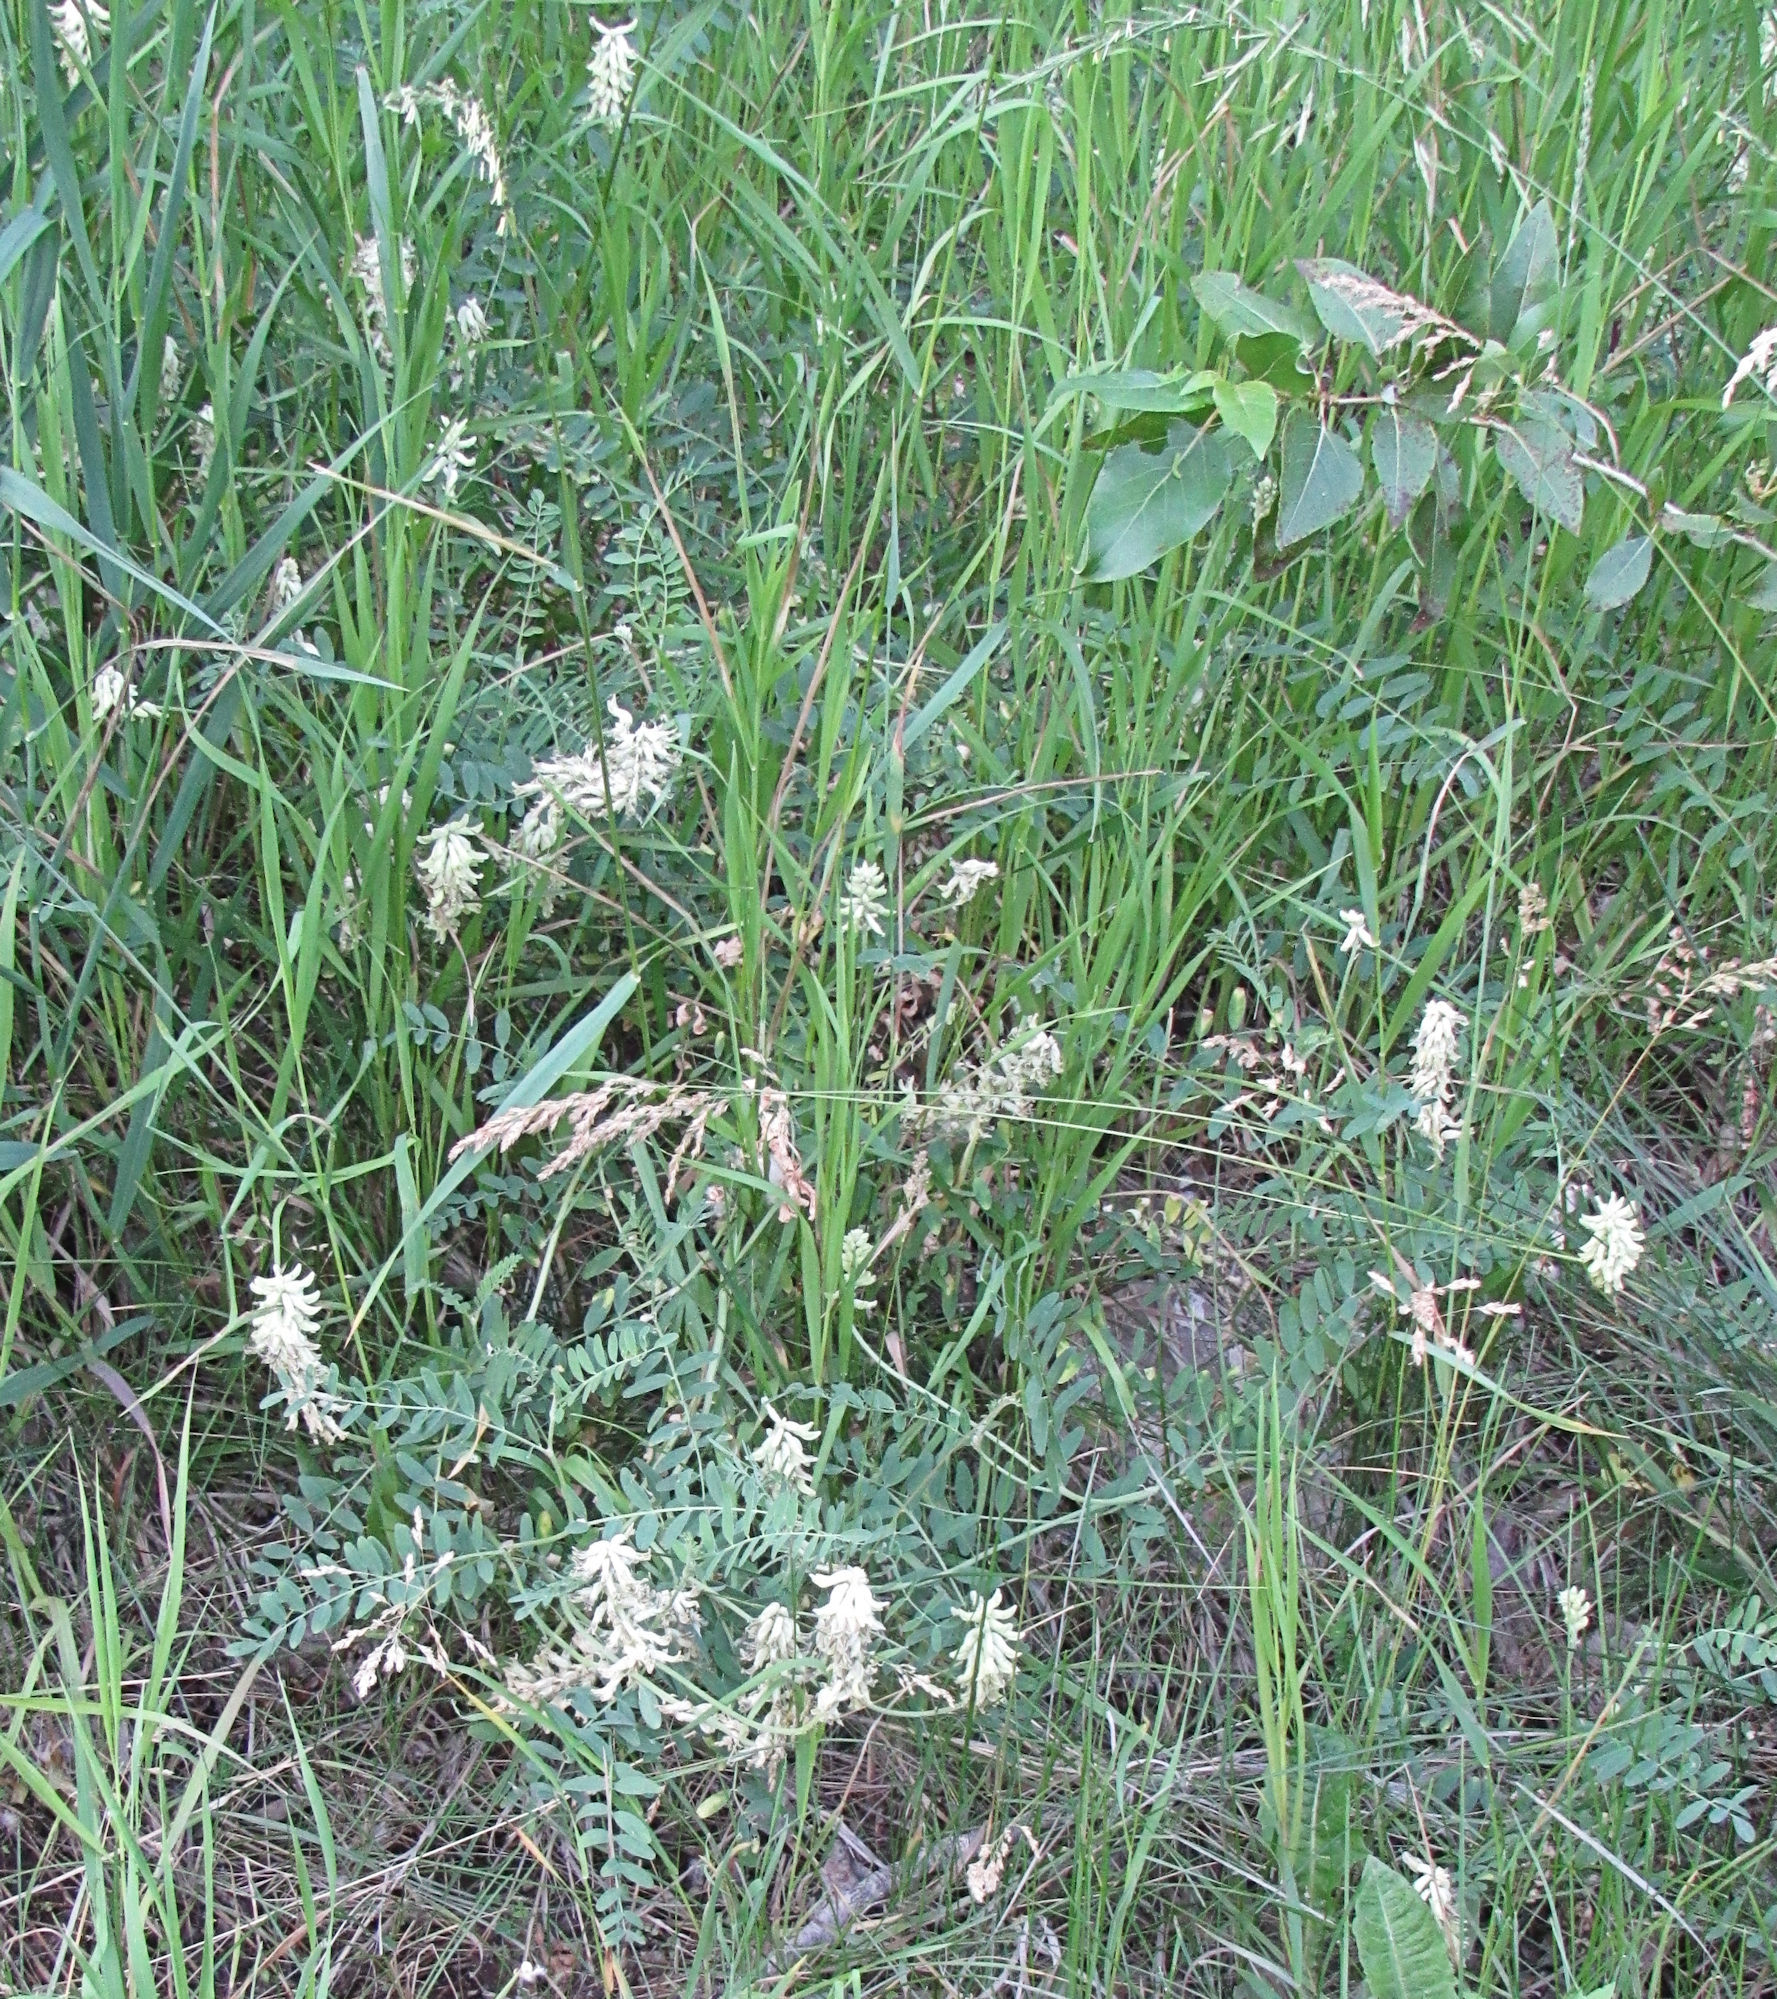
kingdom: Plantae
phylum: Tracheophyta
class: Magnoliopsida
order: Fabales
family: Fabaceae
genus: Astragalus
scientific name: Astragalus canadensis
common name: Canada milk-vetch
